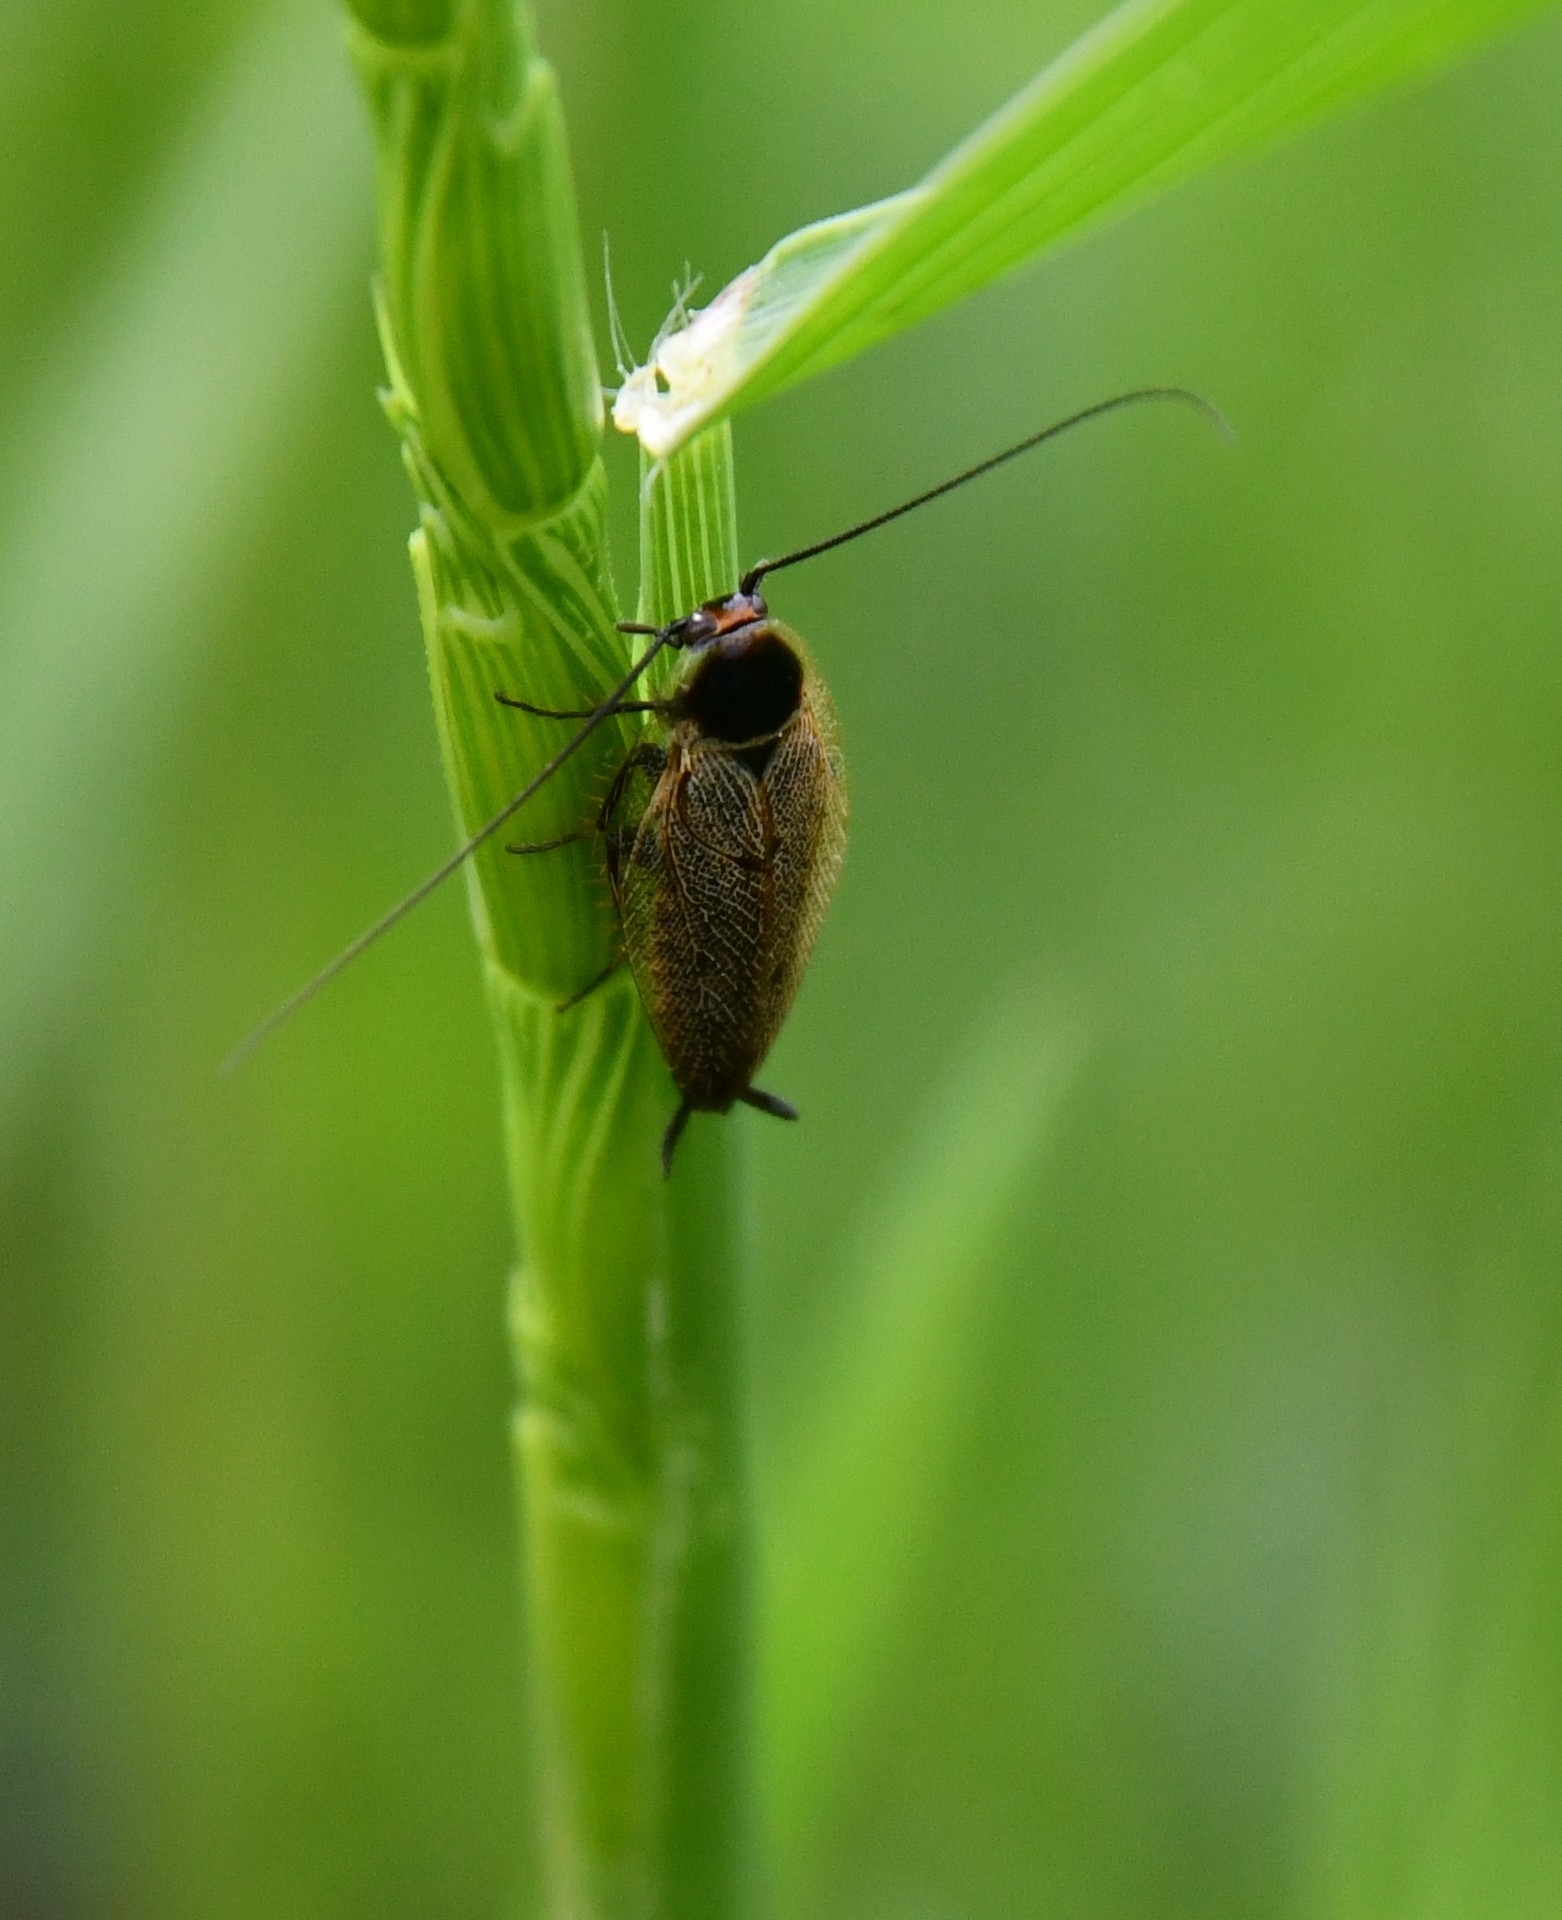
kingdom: Animalia
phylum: Arthropoda
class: Insecta
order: Blattodea
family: Ectobiidae
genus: Ectobius
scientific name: Ectobius erythronotus
